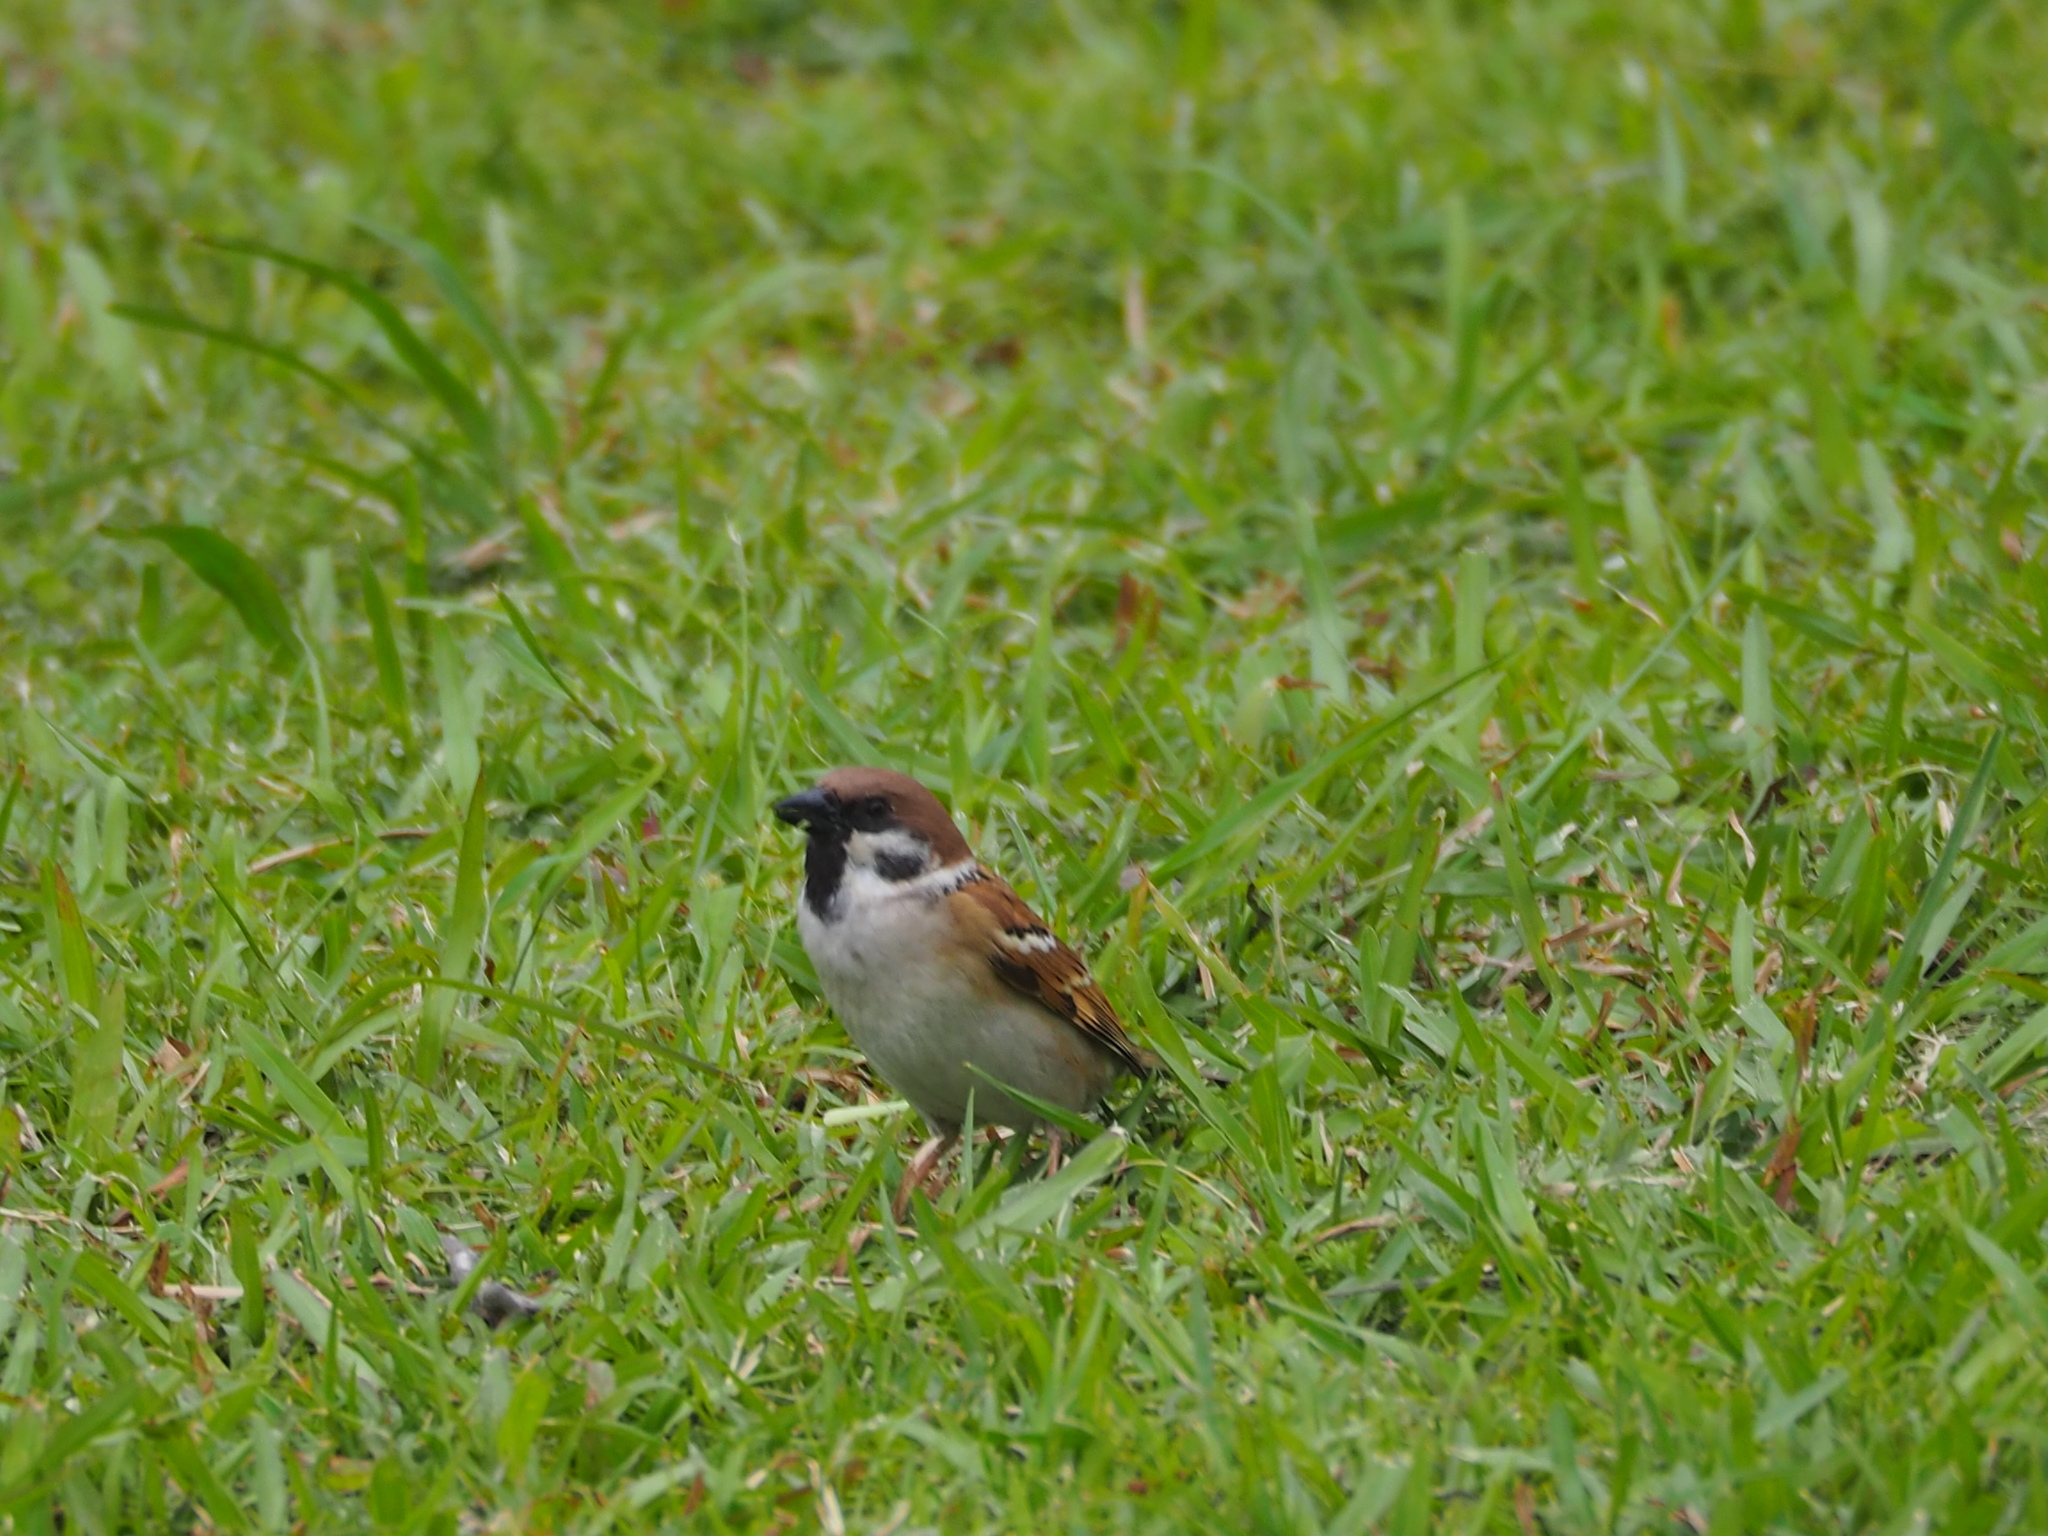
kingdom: Animalia
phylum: Chordata
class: Aves
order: Passeriformes
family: Passeridae
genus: Passer
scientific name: Passer montanus
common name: Eurasian tree sparrow
